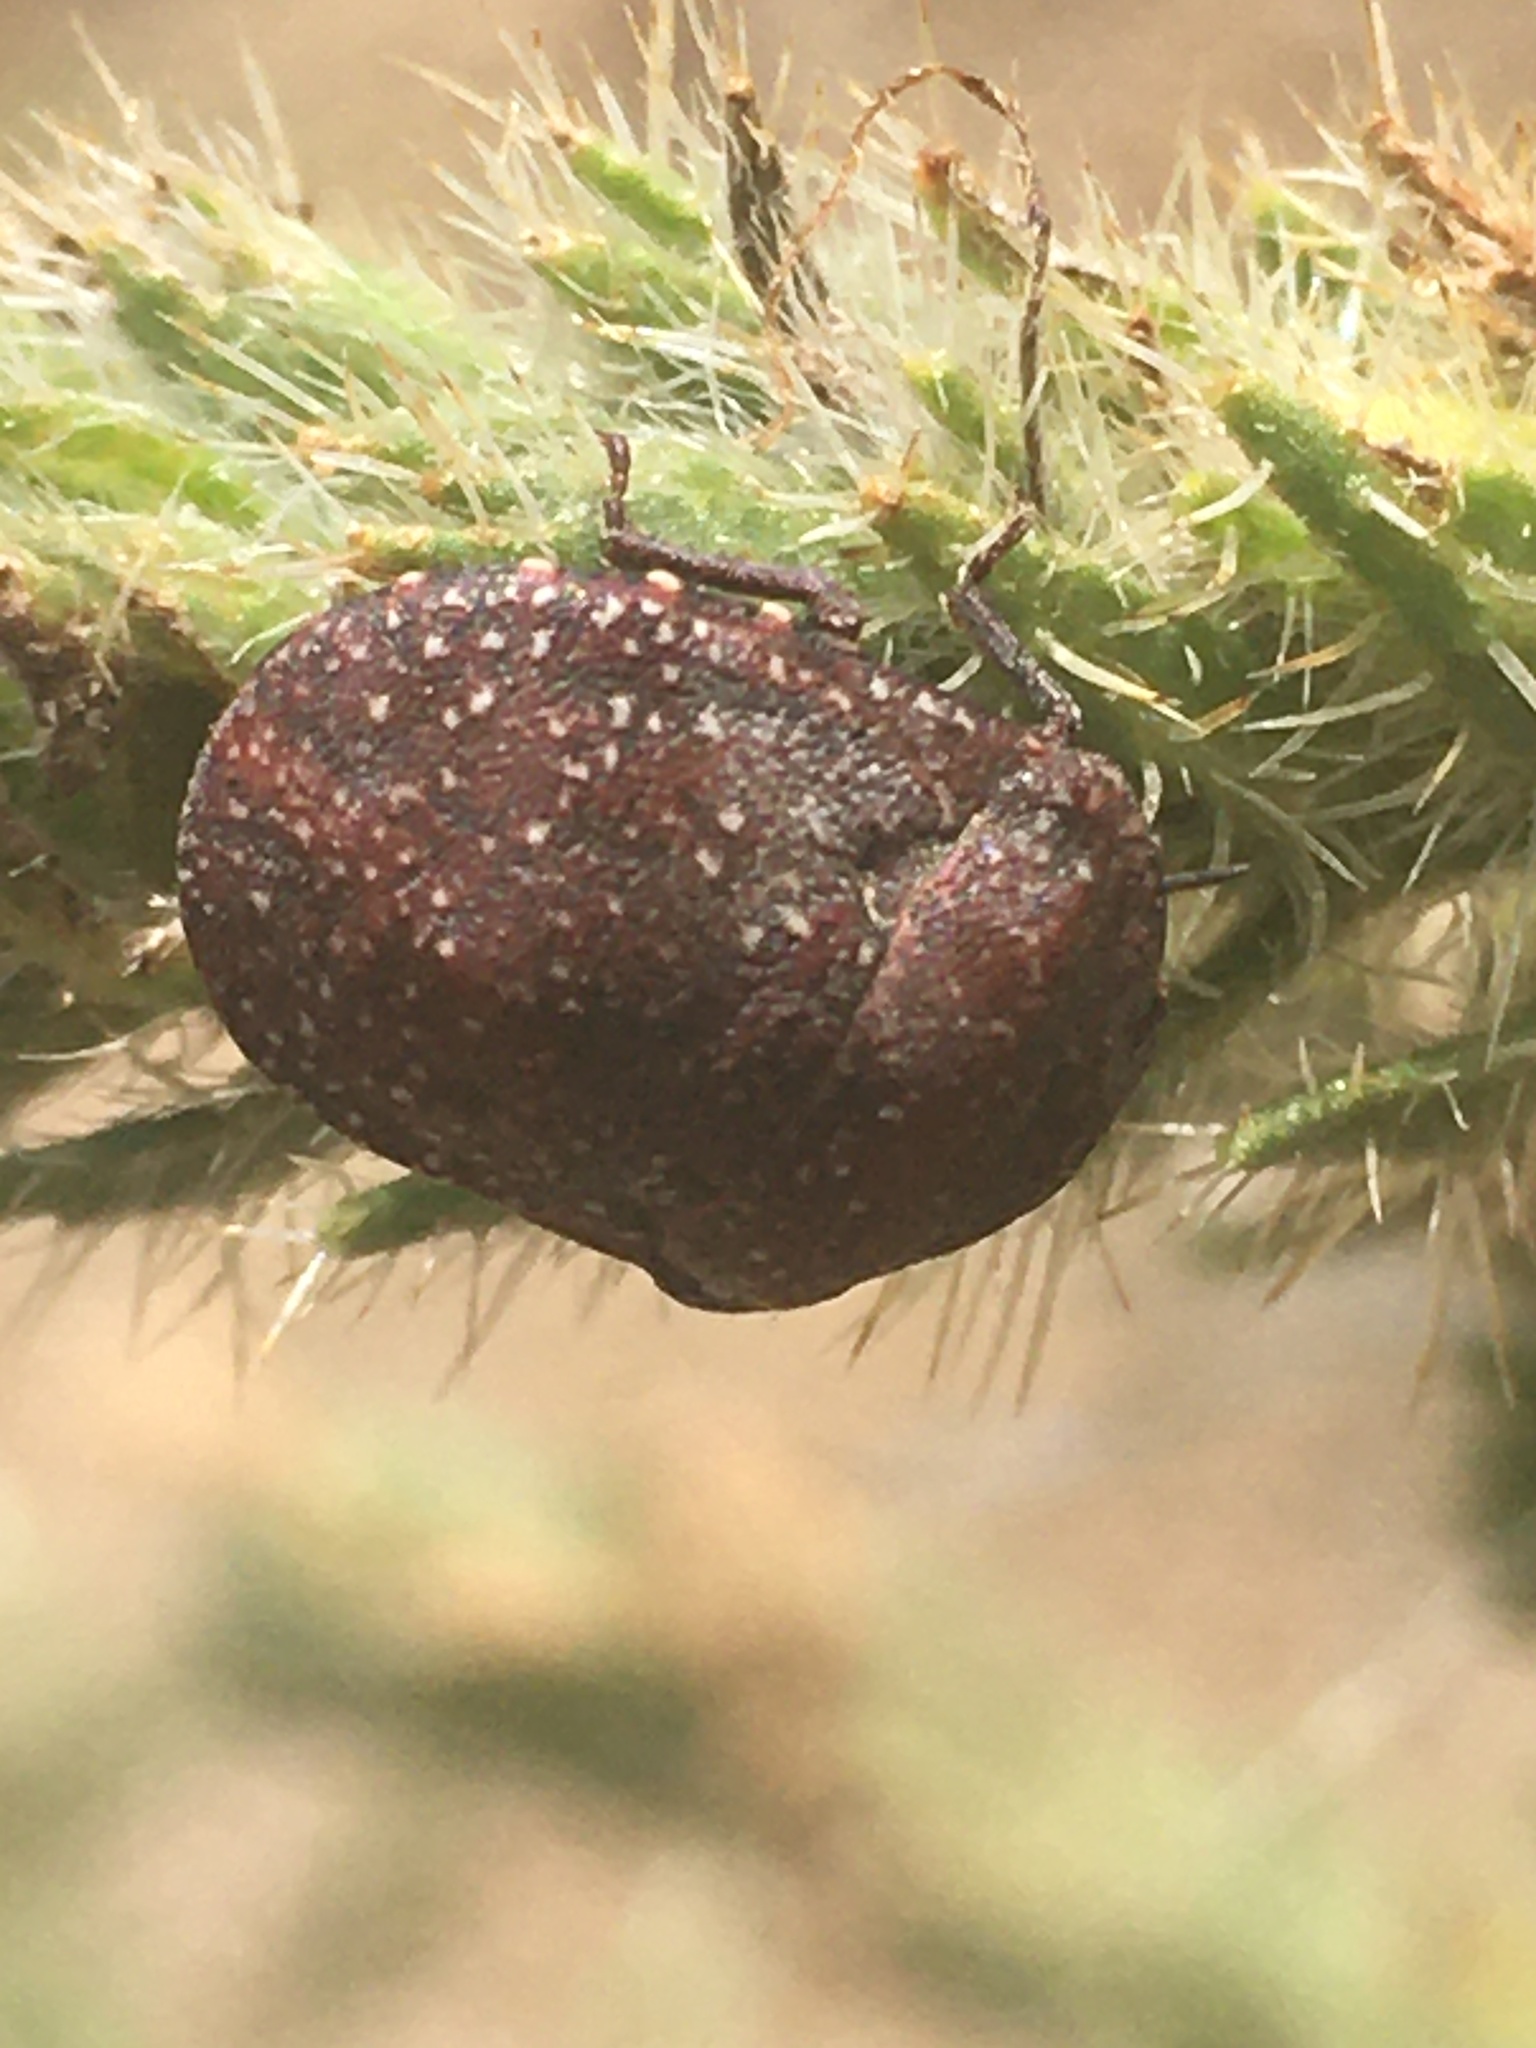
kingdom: Animalia
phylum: Arthropoda
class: Insecta
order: Hemiptera
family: Scutelleridae
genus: Psacasta
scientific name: Psacasta exanthematica
